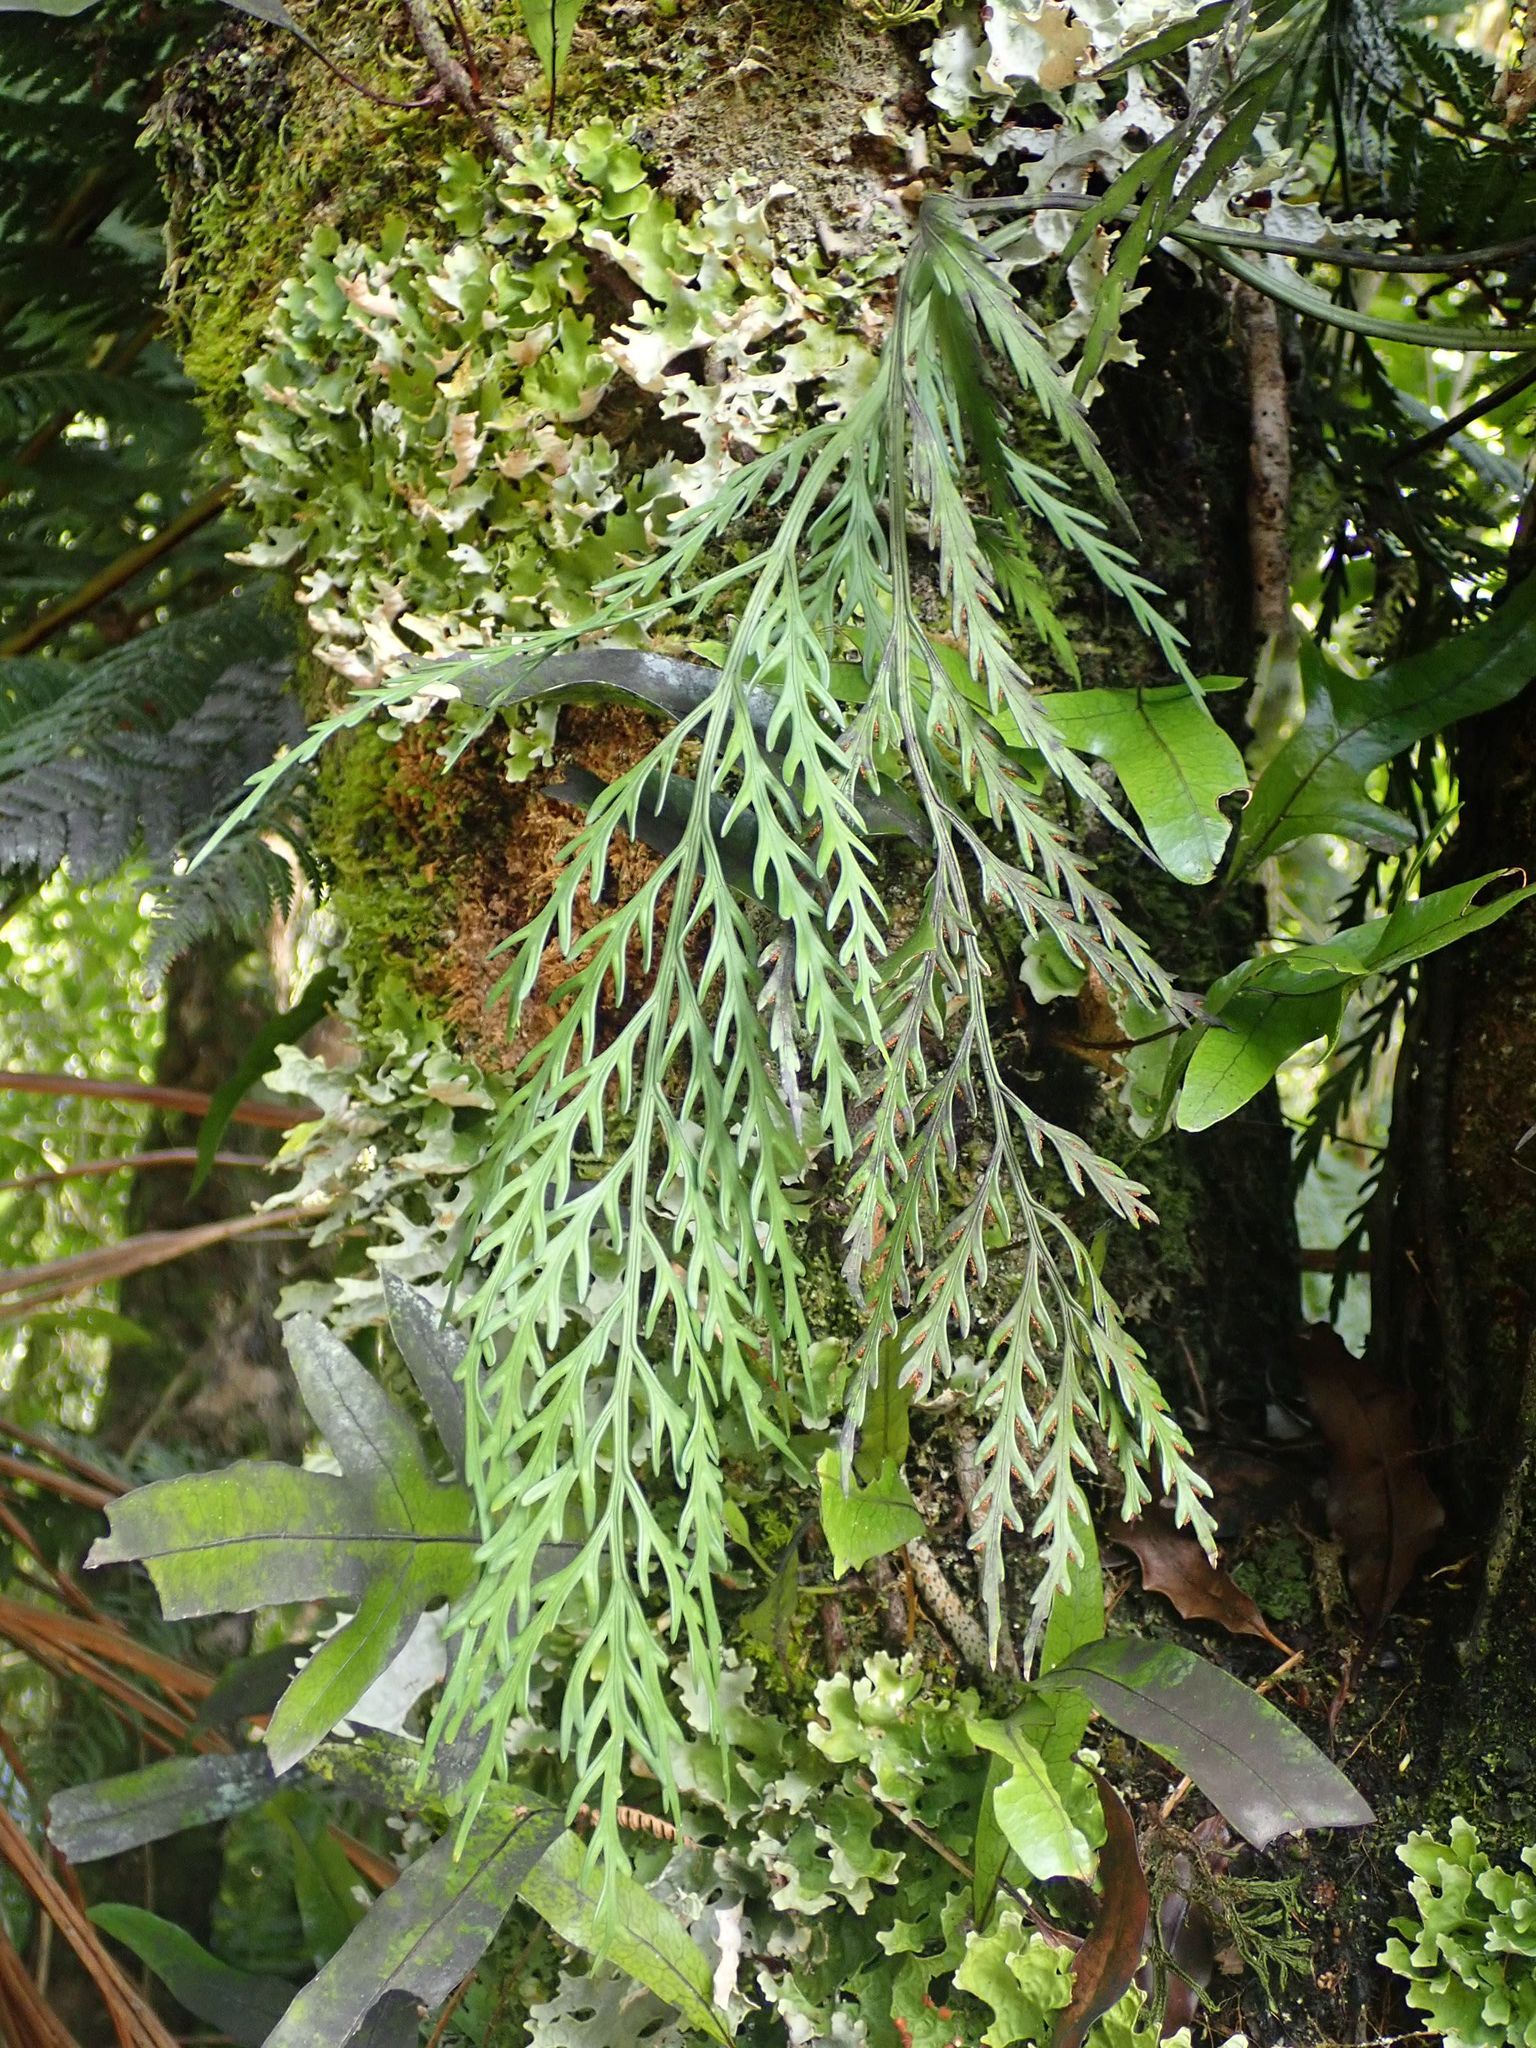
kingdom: Plantae
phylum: Tracheophyta
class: Polypodiopsida
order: Polypodiales
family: Aspleniaceae
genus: Asplenium
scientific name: Asplenium flaccidum
